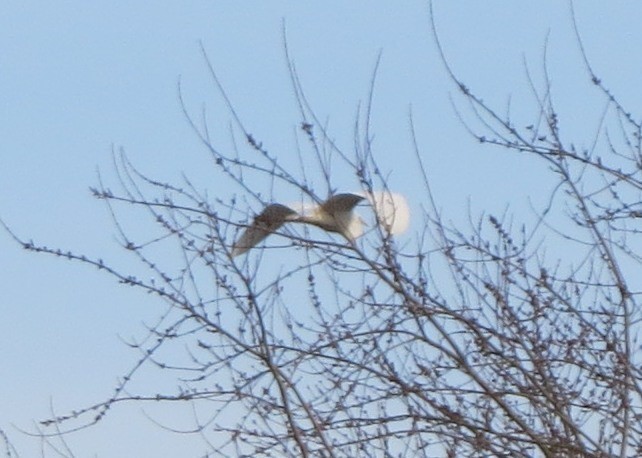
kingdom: Animalia
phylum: Chordata
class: Aves
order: Pelecaniformes
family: Ardeidae
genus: Ardea
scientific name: Ardea alba
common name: Great egret
